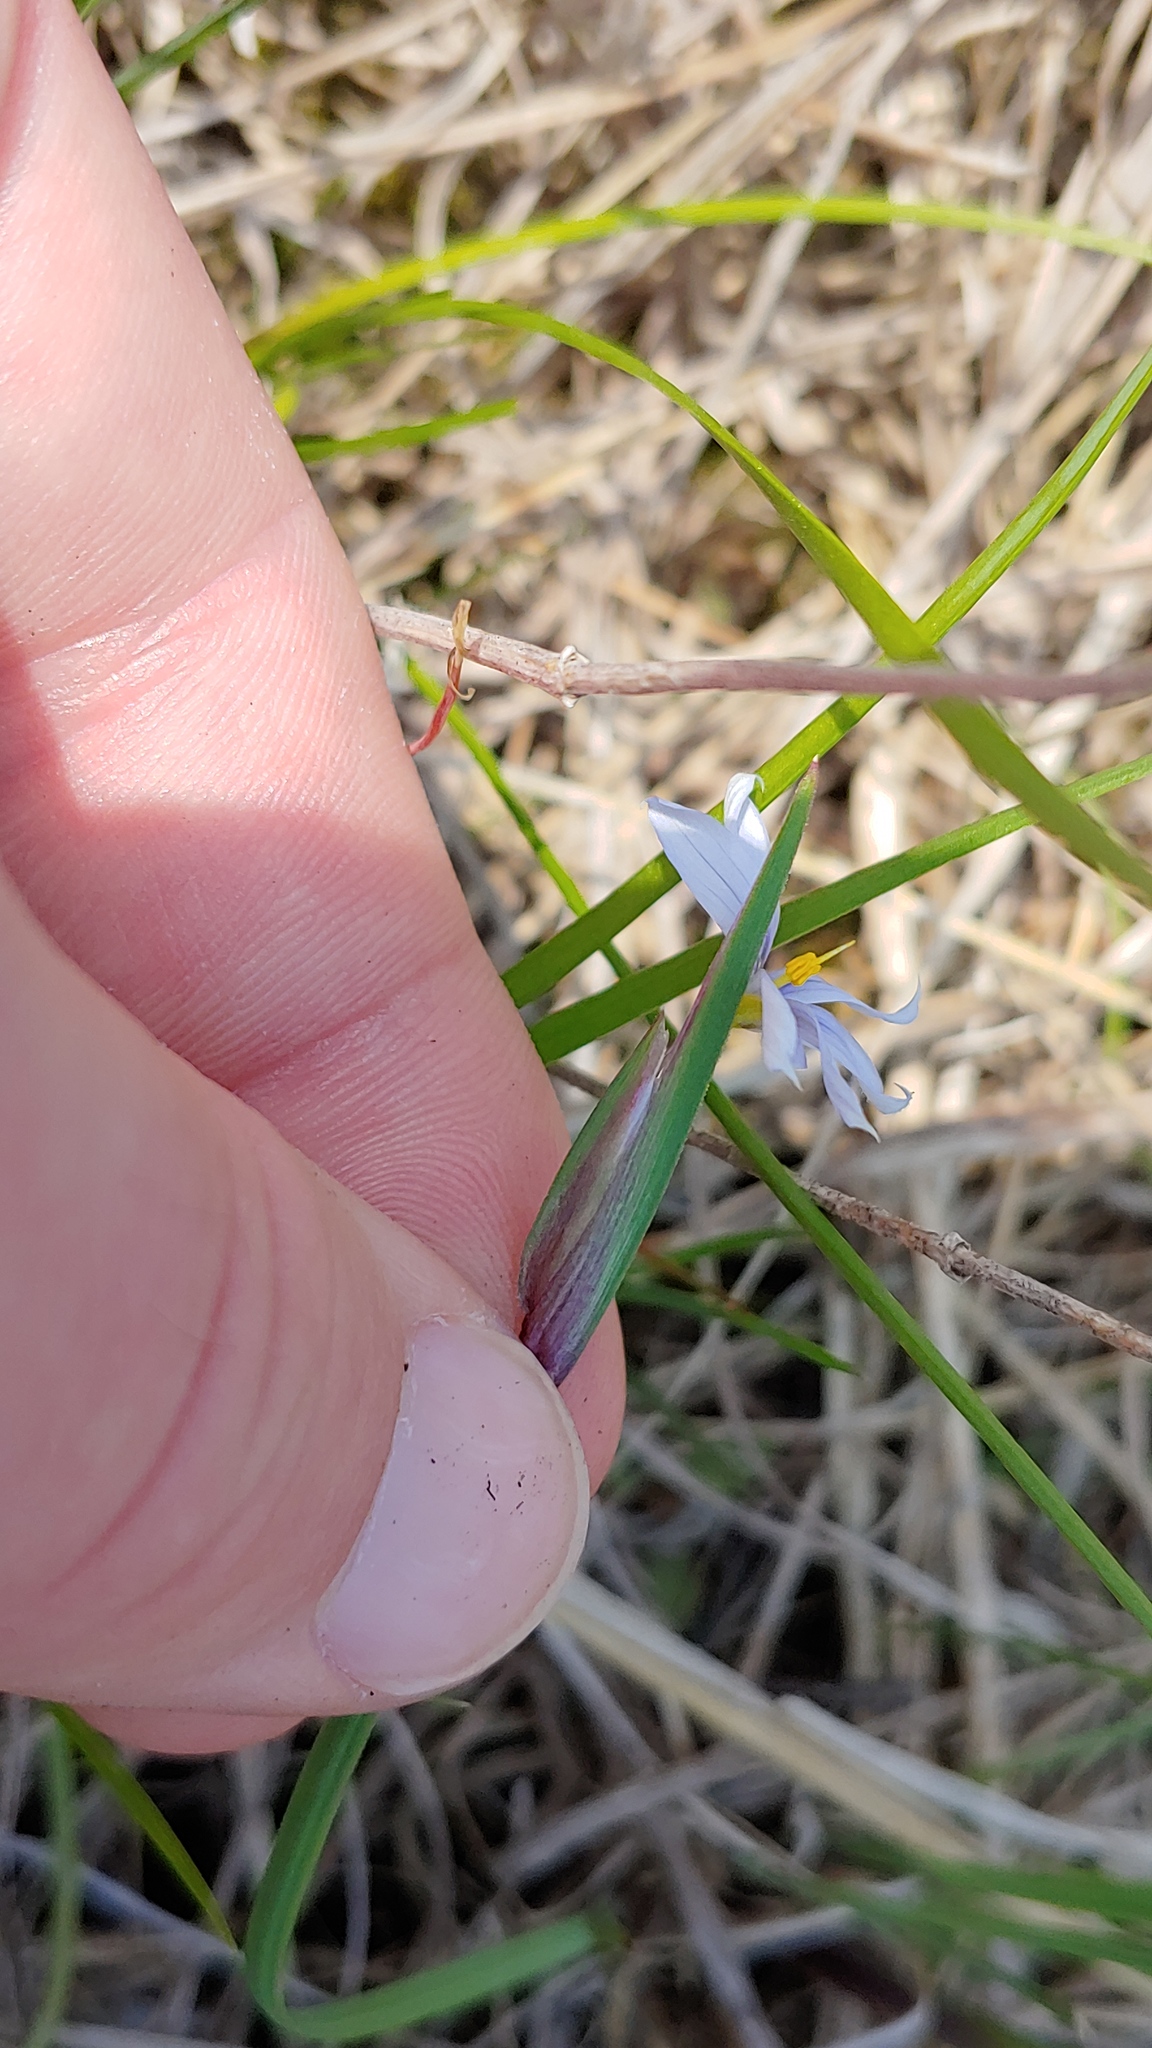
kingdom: Plantae
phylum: Tracheophyta
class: Liliopsida
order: Asparagales
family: Iridaceae
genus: Sisyrinchium
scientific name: Sisyrinchium albidum
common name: Pale blue-eyed-grass
